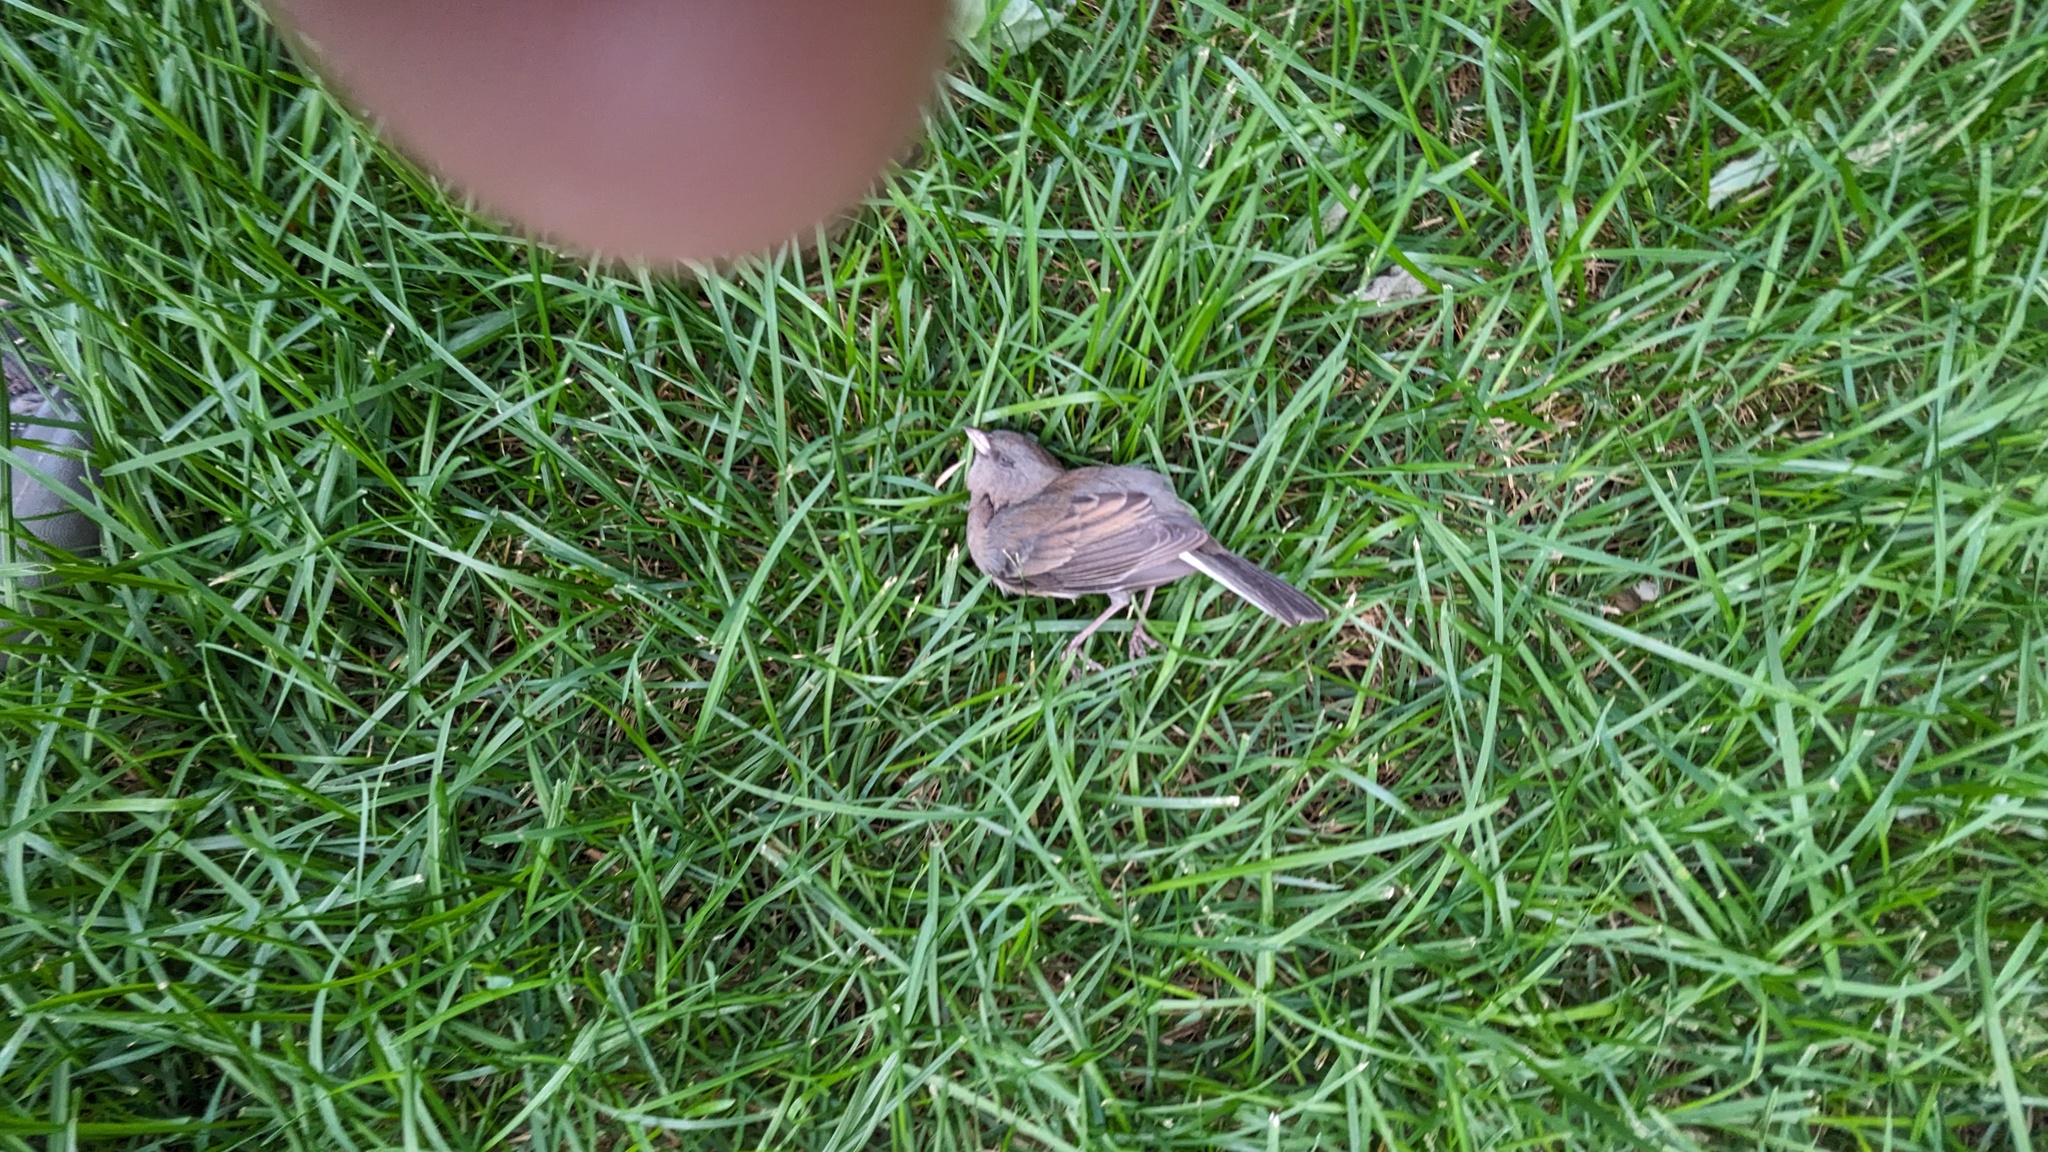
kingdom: Animalia
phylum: Chordata
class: Aves
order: Passeriformes
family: Passerellidae
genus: Junco
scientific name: Junco hyemalis
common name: Dark-eyed junco
